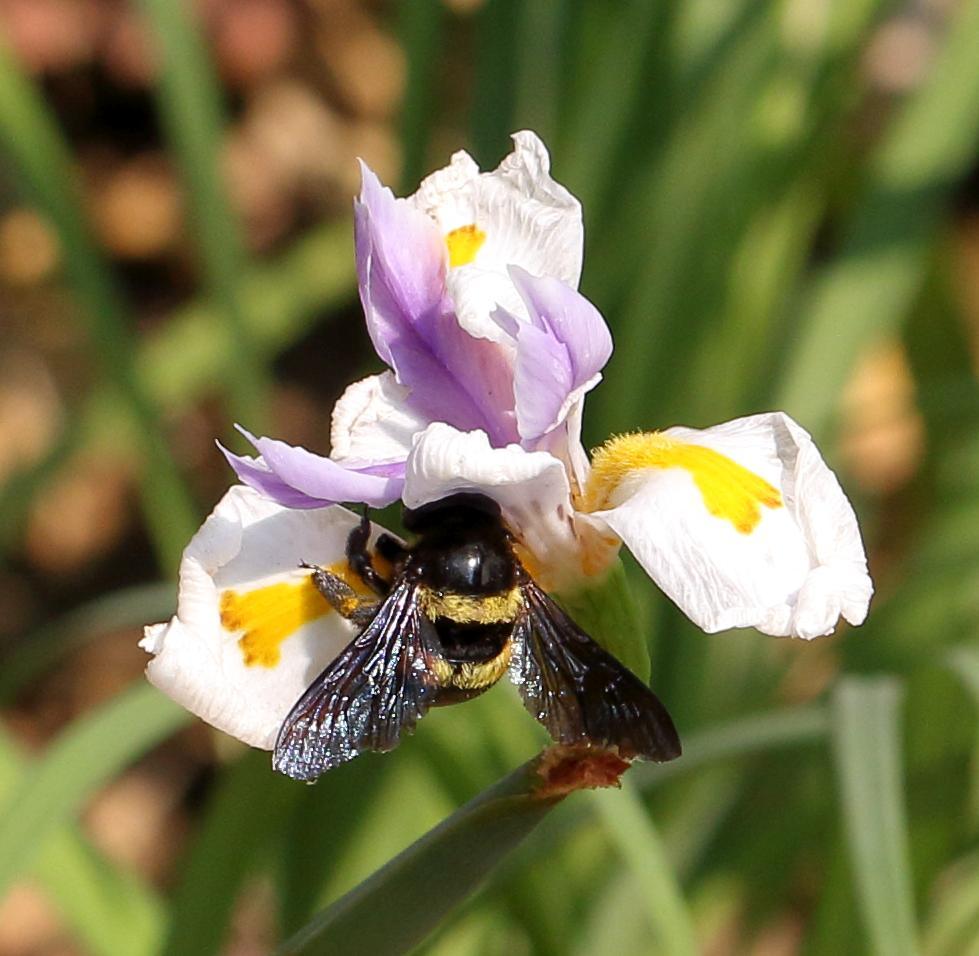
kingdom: Animalia
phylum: Arthropoda
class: Insecta
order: Hymenoptera
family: Apidae
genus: Xylocopa
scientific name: Xylocopa caffra
